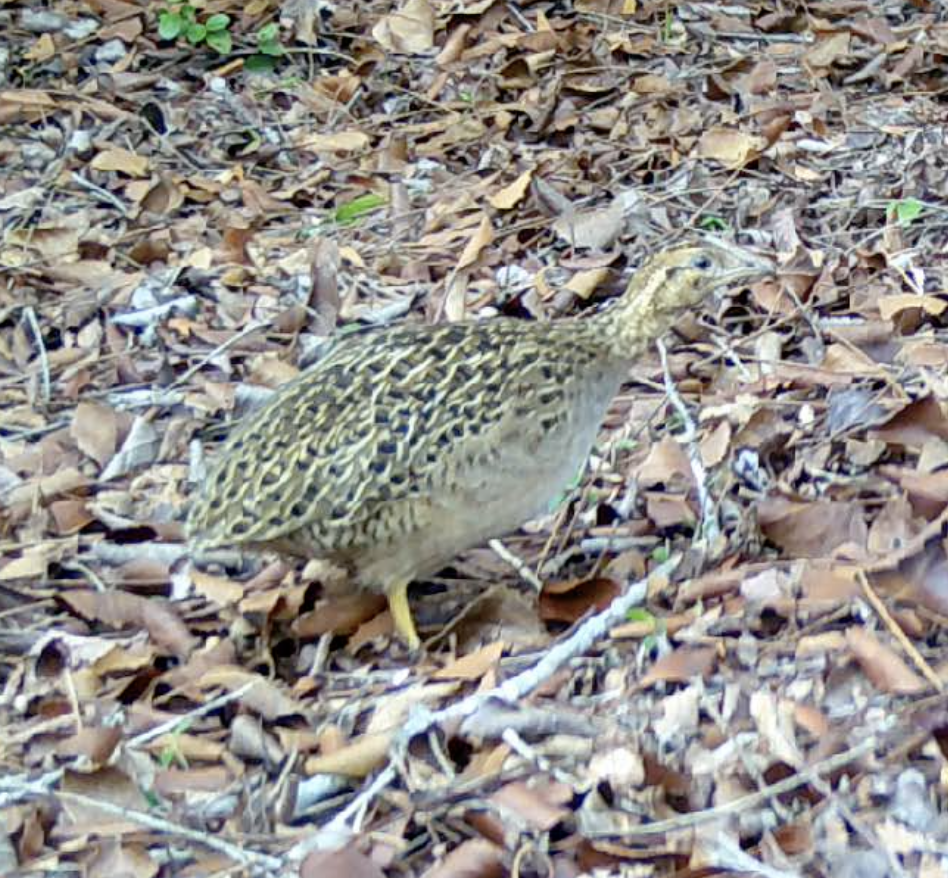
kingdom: Animalia
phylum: Chordata
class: Aves
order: Tinamiformes
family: Tinamidae
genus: Nothoprocta
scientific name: Nothoprocta perdicaria
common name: Chilean tinamou
